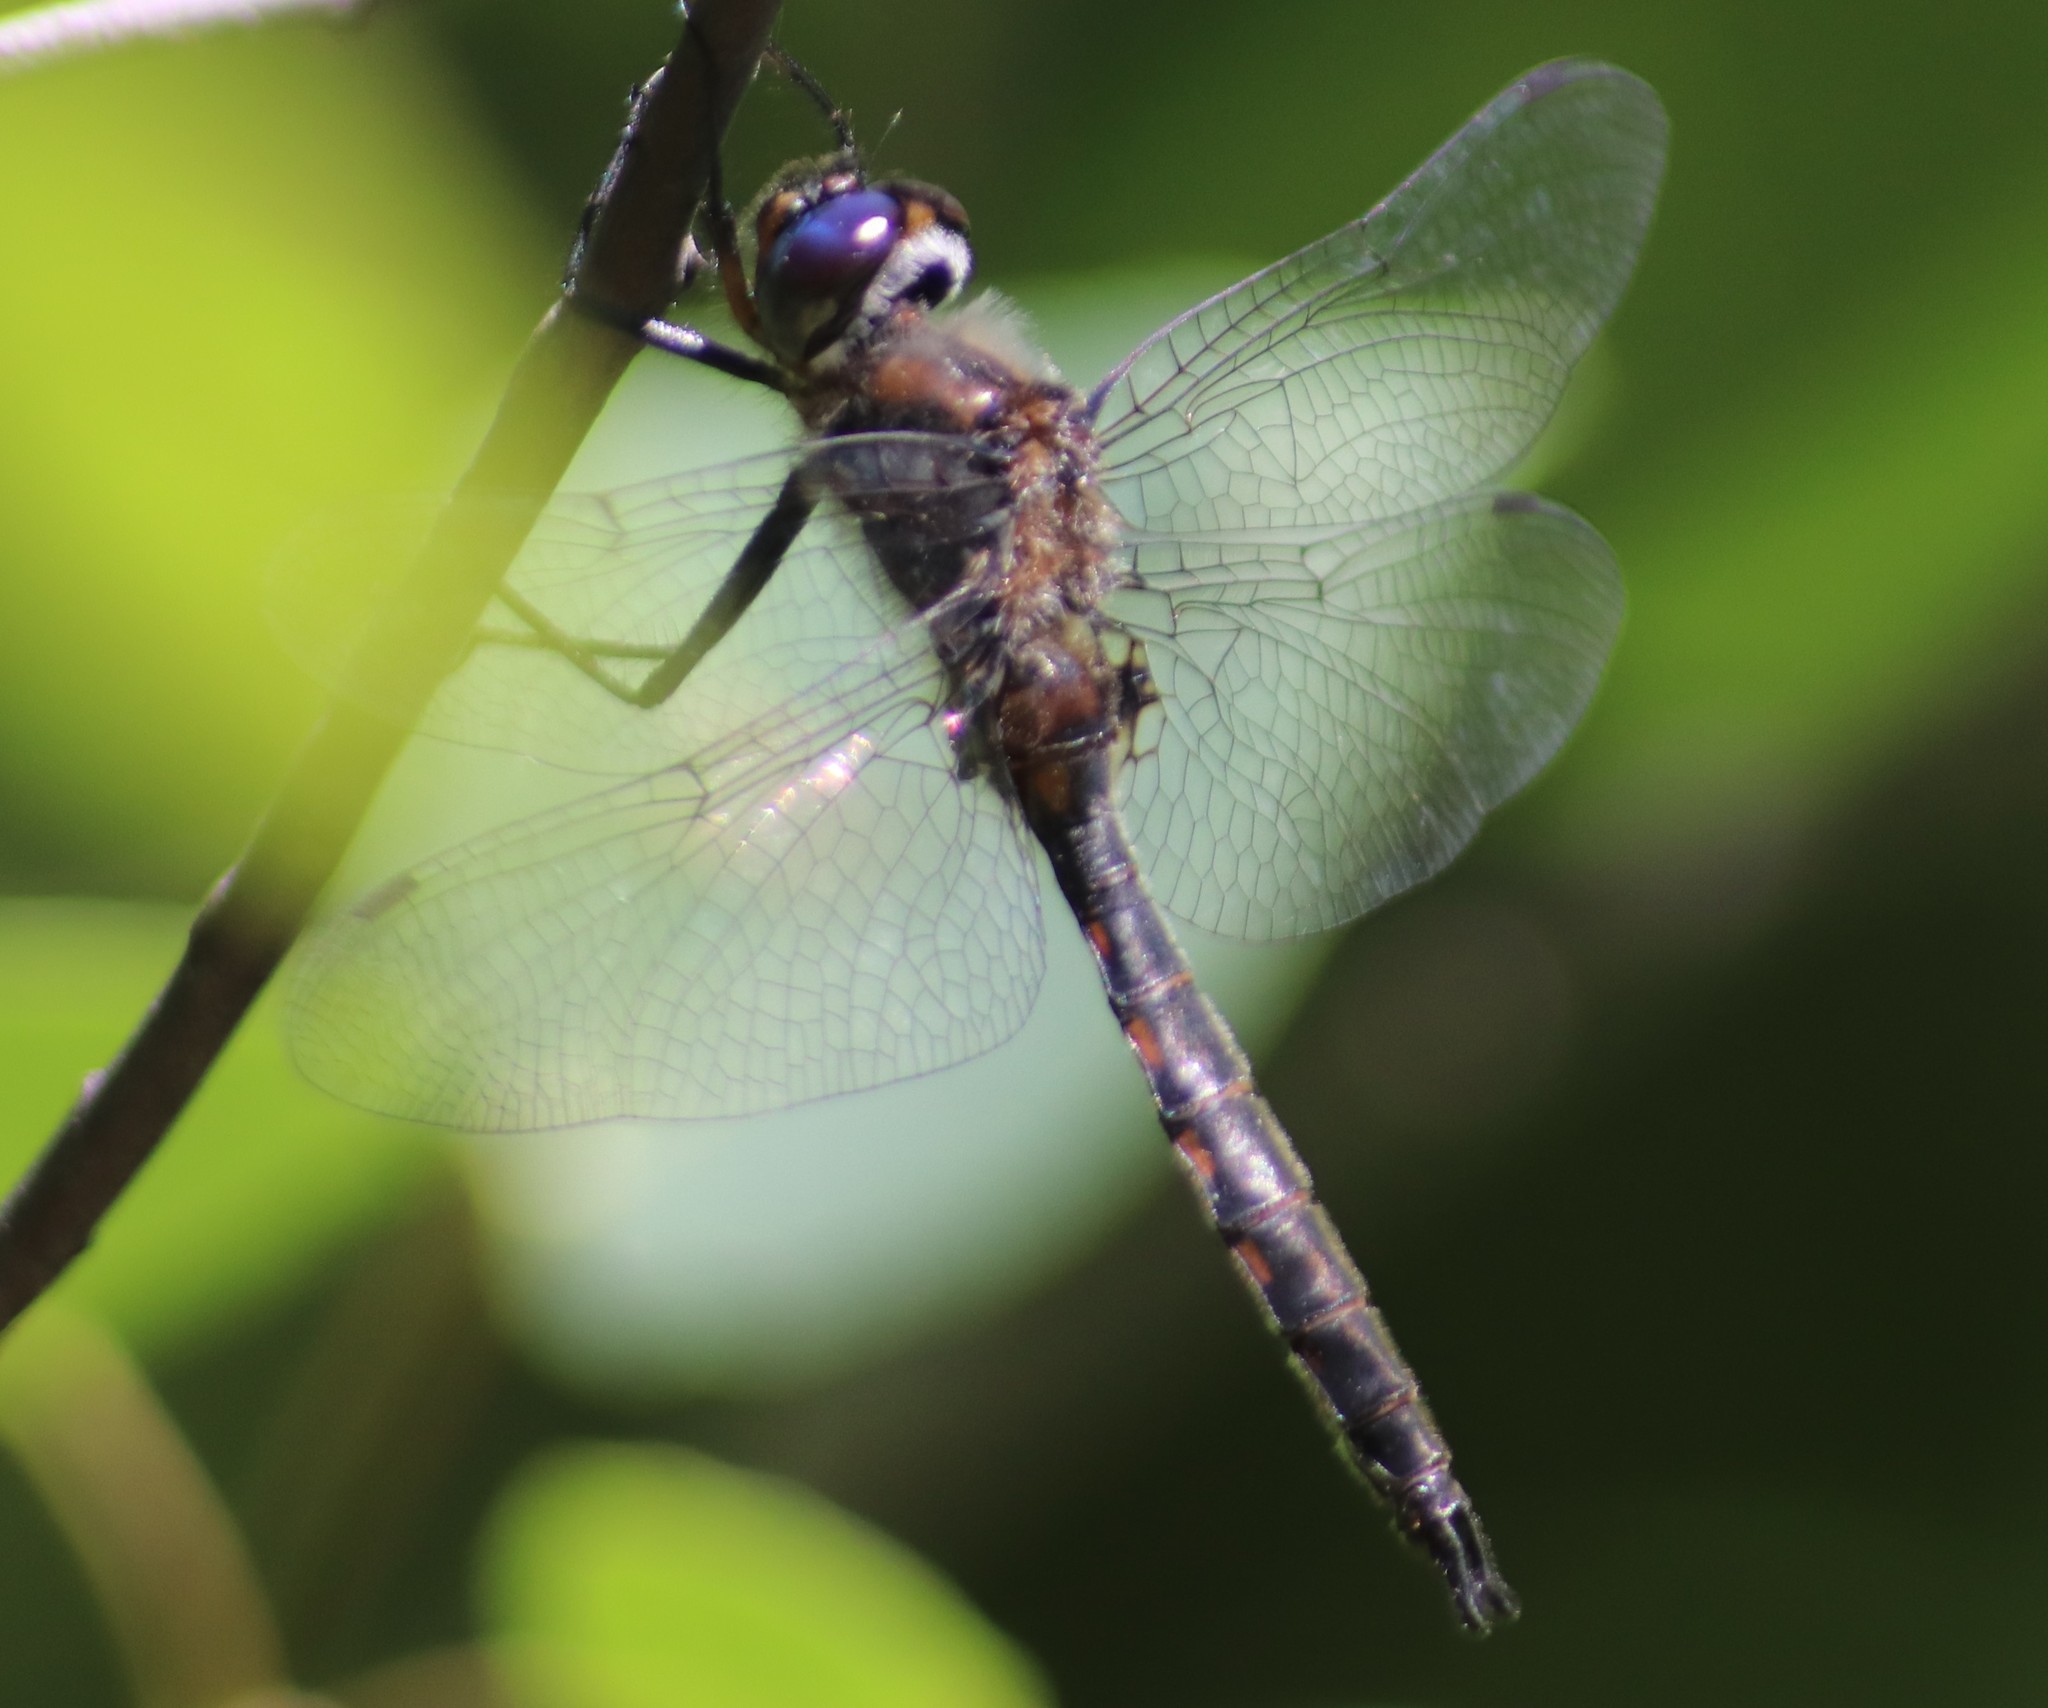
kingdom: Animalia
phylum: Arthropoda
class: Insecta
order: Odonata
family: Corduliidae
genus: Epitheca
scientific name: Epitheca spinigera
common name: Spiny baskettail
